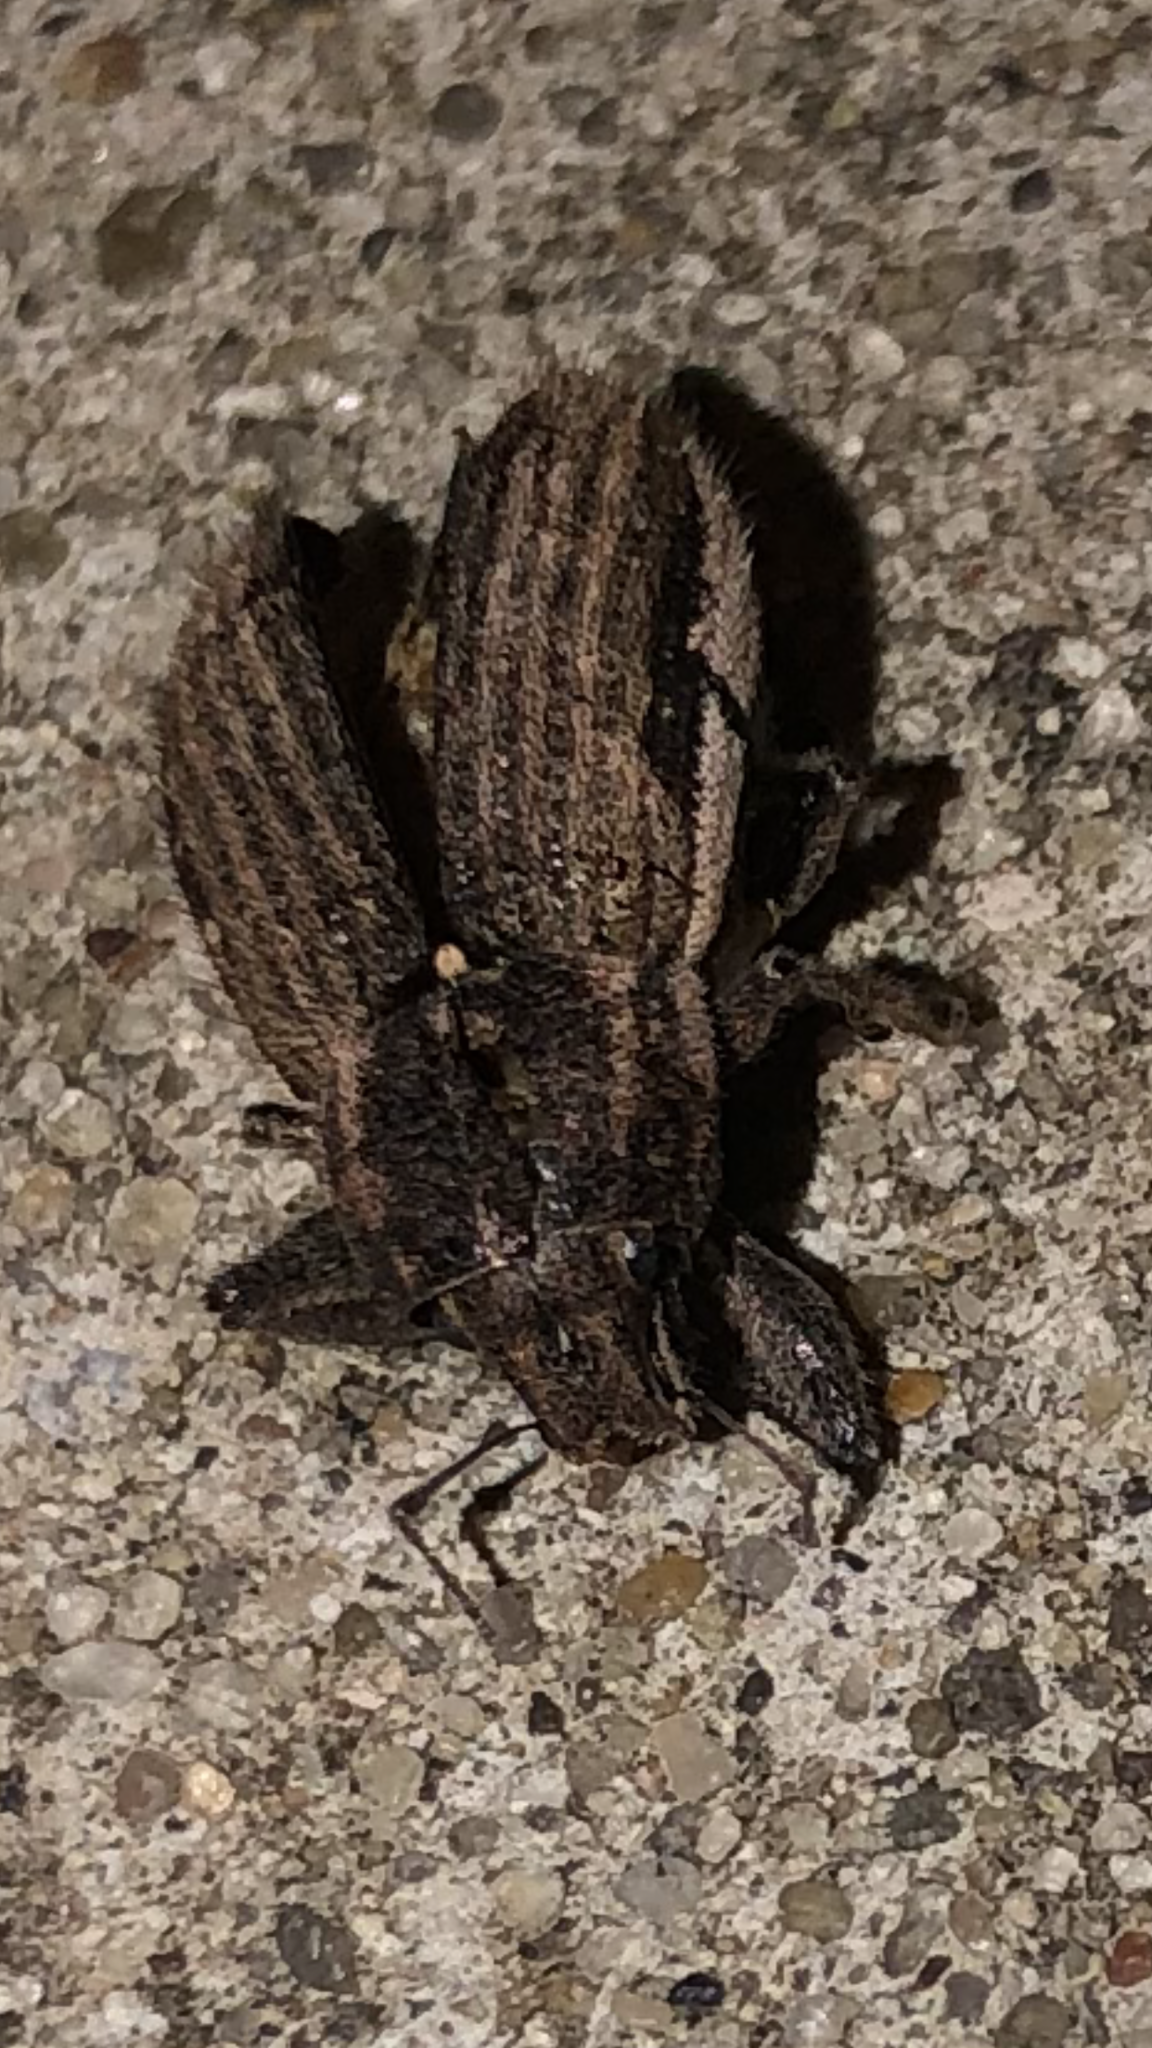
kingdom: Animalia
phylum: Arthropoda
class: Insecta
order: Coleoptera
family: Curculionidae
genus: Naupactus
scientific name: Naupactus leucoloma
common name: Whitefringed beetle
